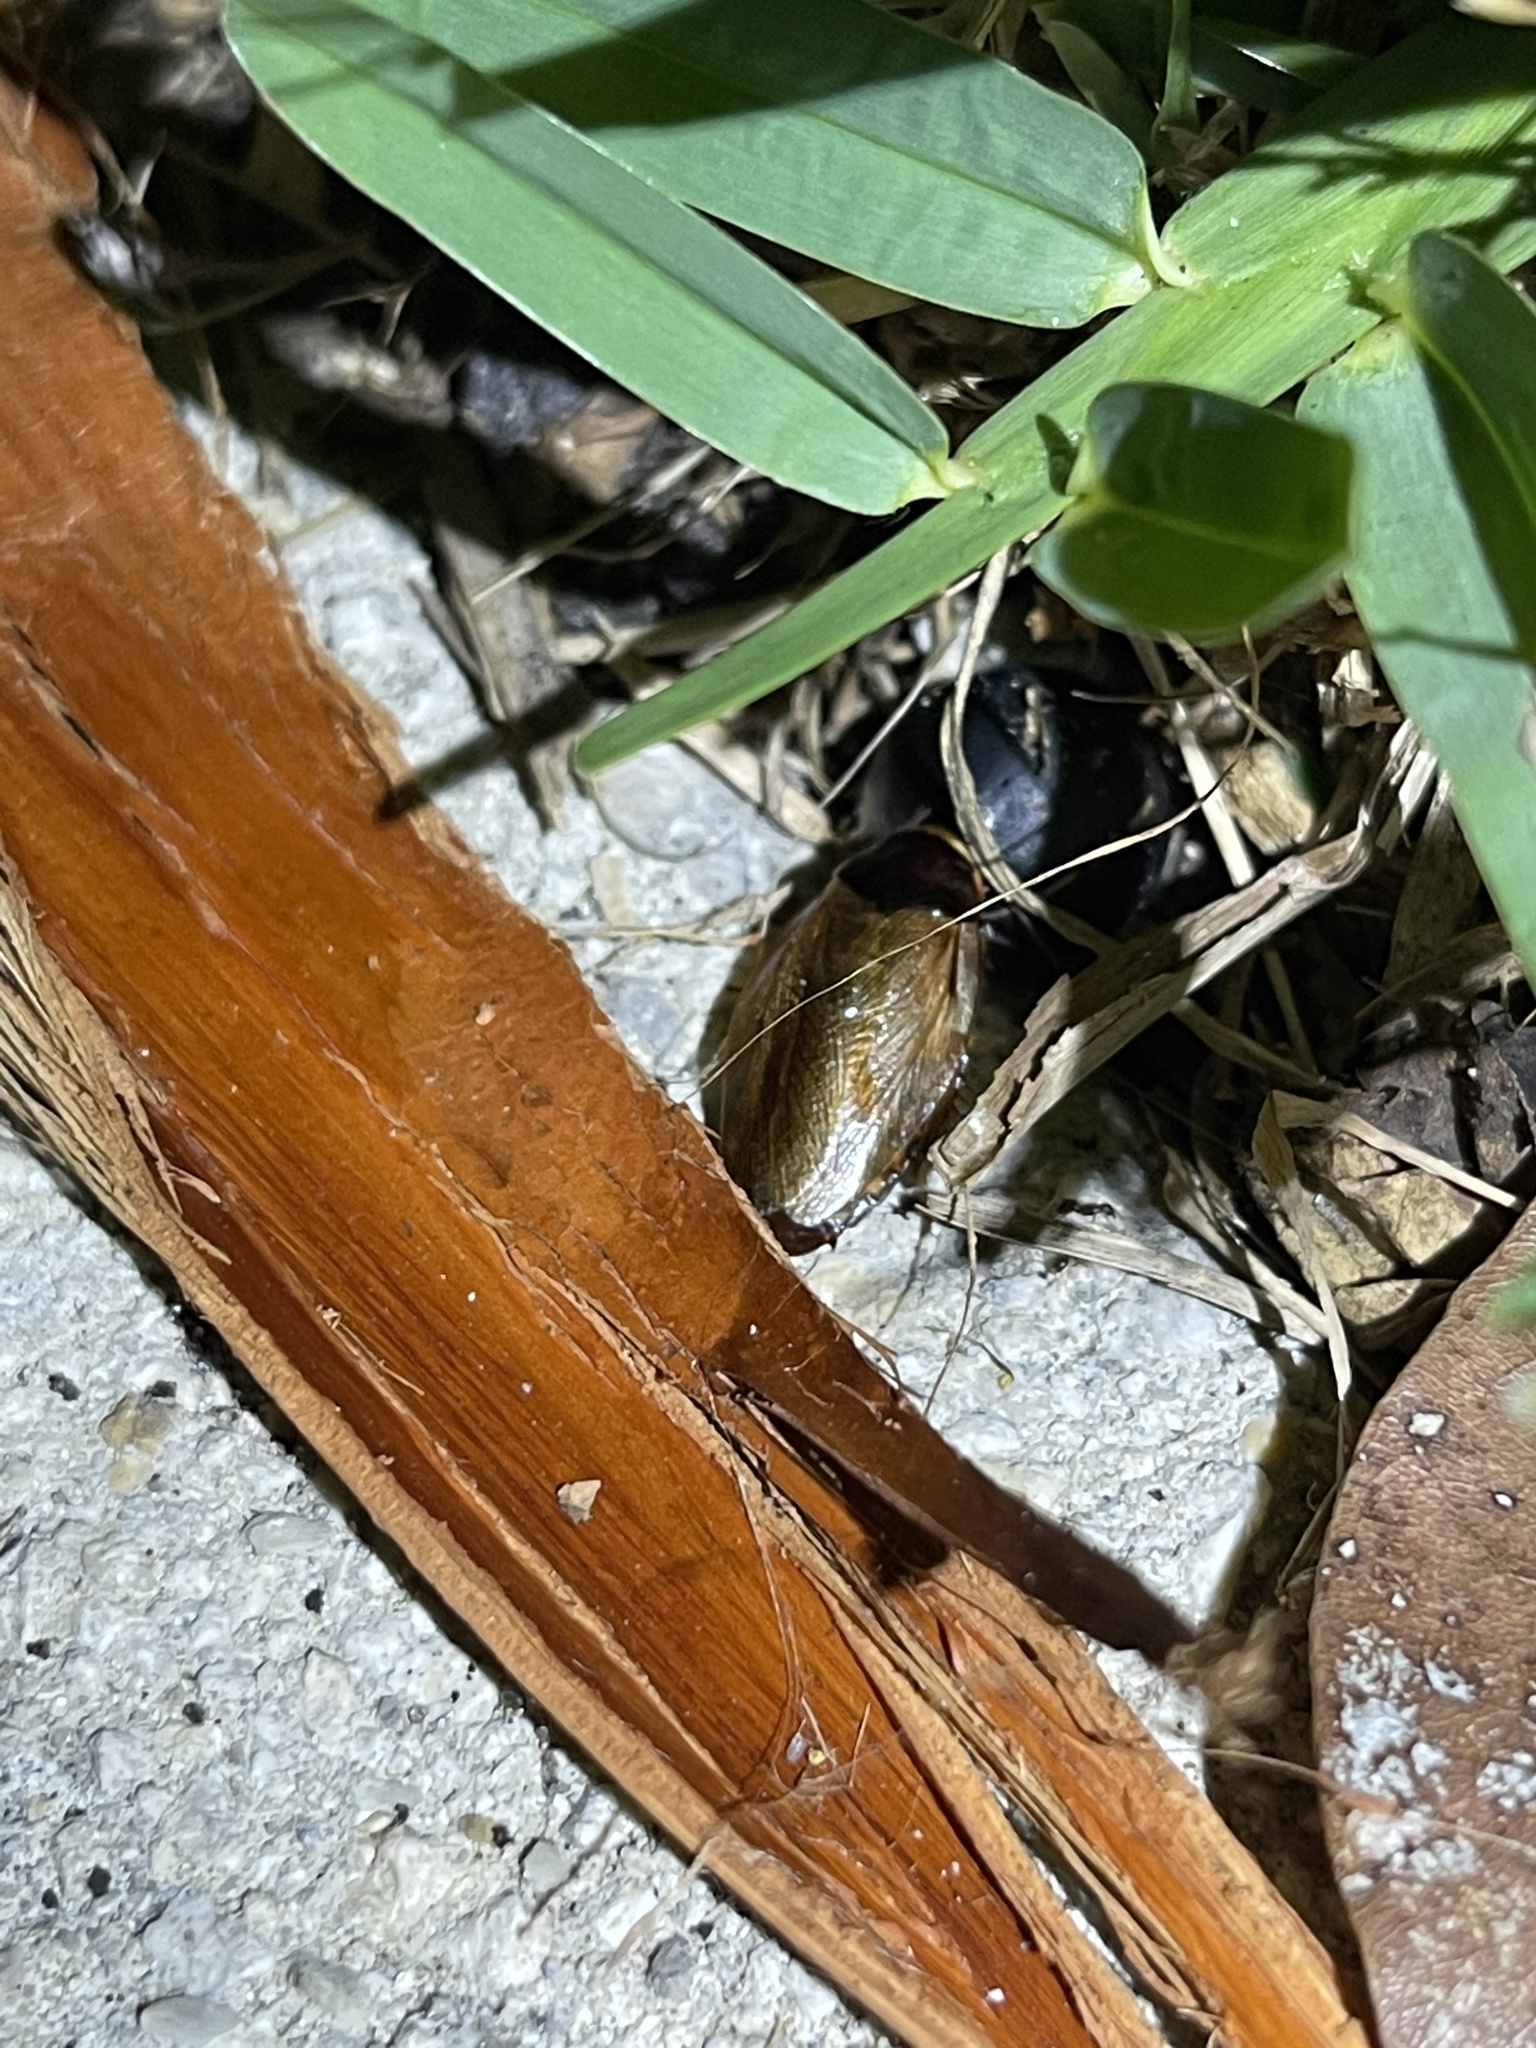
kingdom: Animalia
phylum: Arthropoda
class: Insecta
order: Blattodea
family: Blaberidae
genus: Pycnoscelus
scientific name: Pycnoscelus surinamensis
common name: Surinam cockroach
